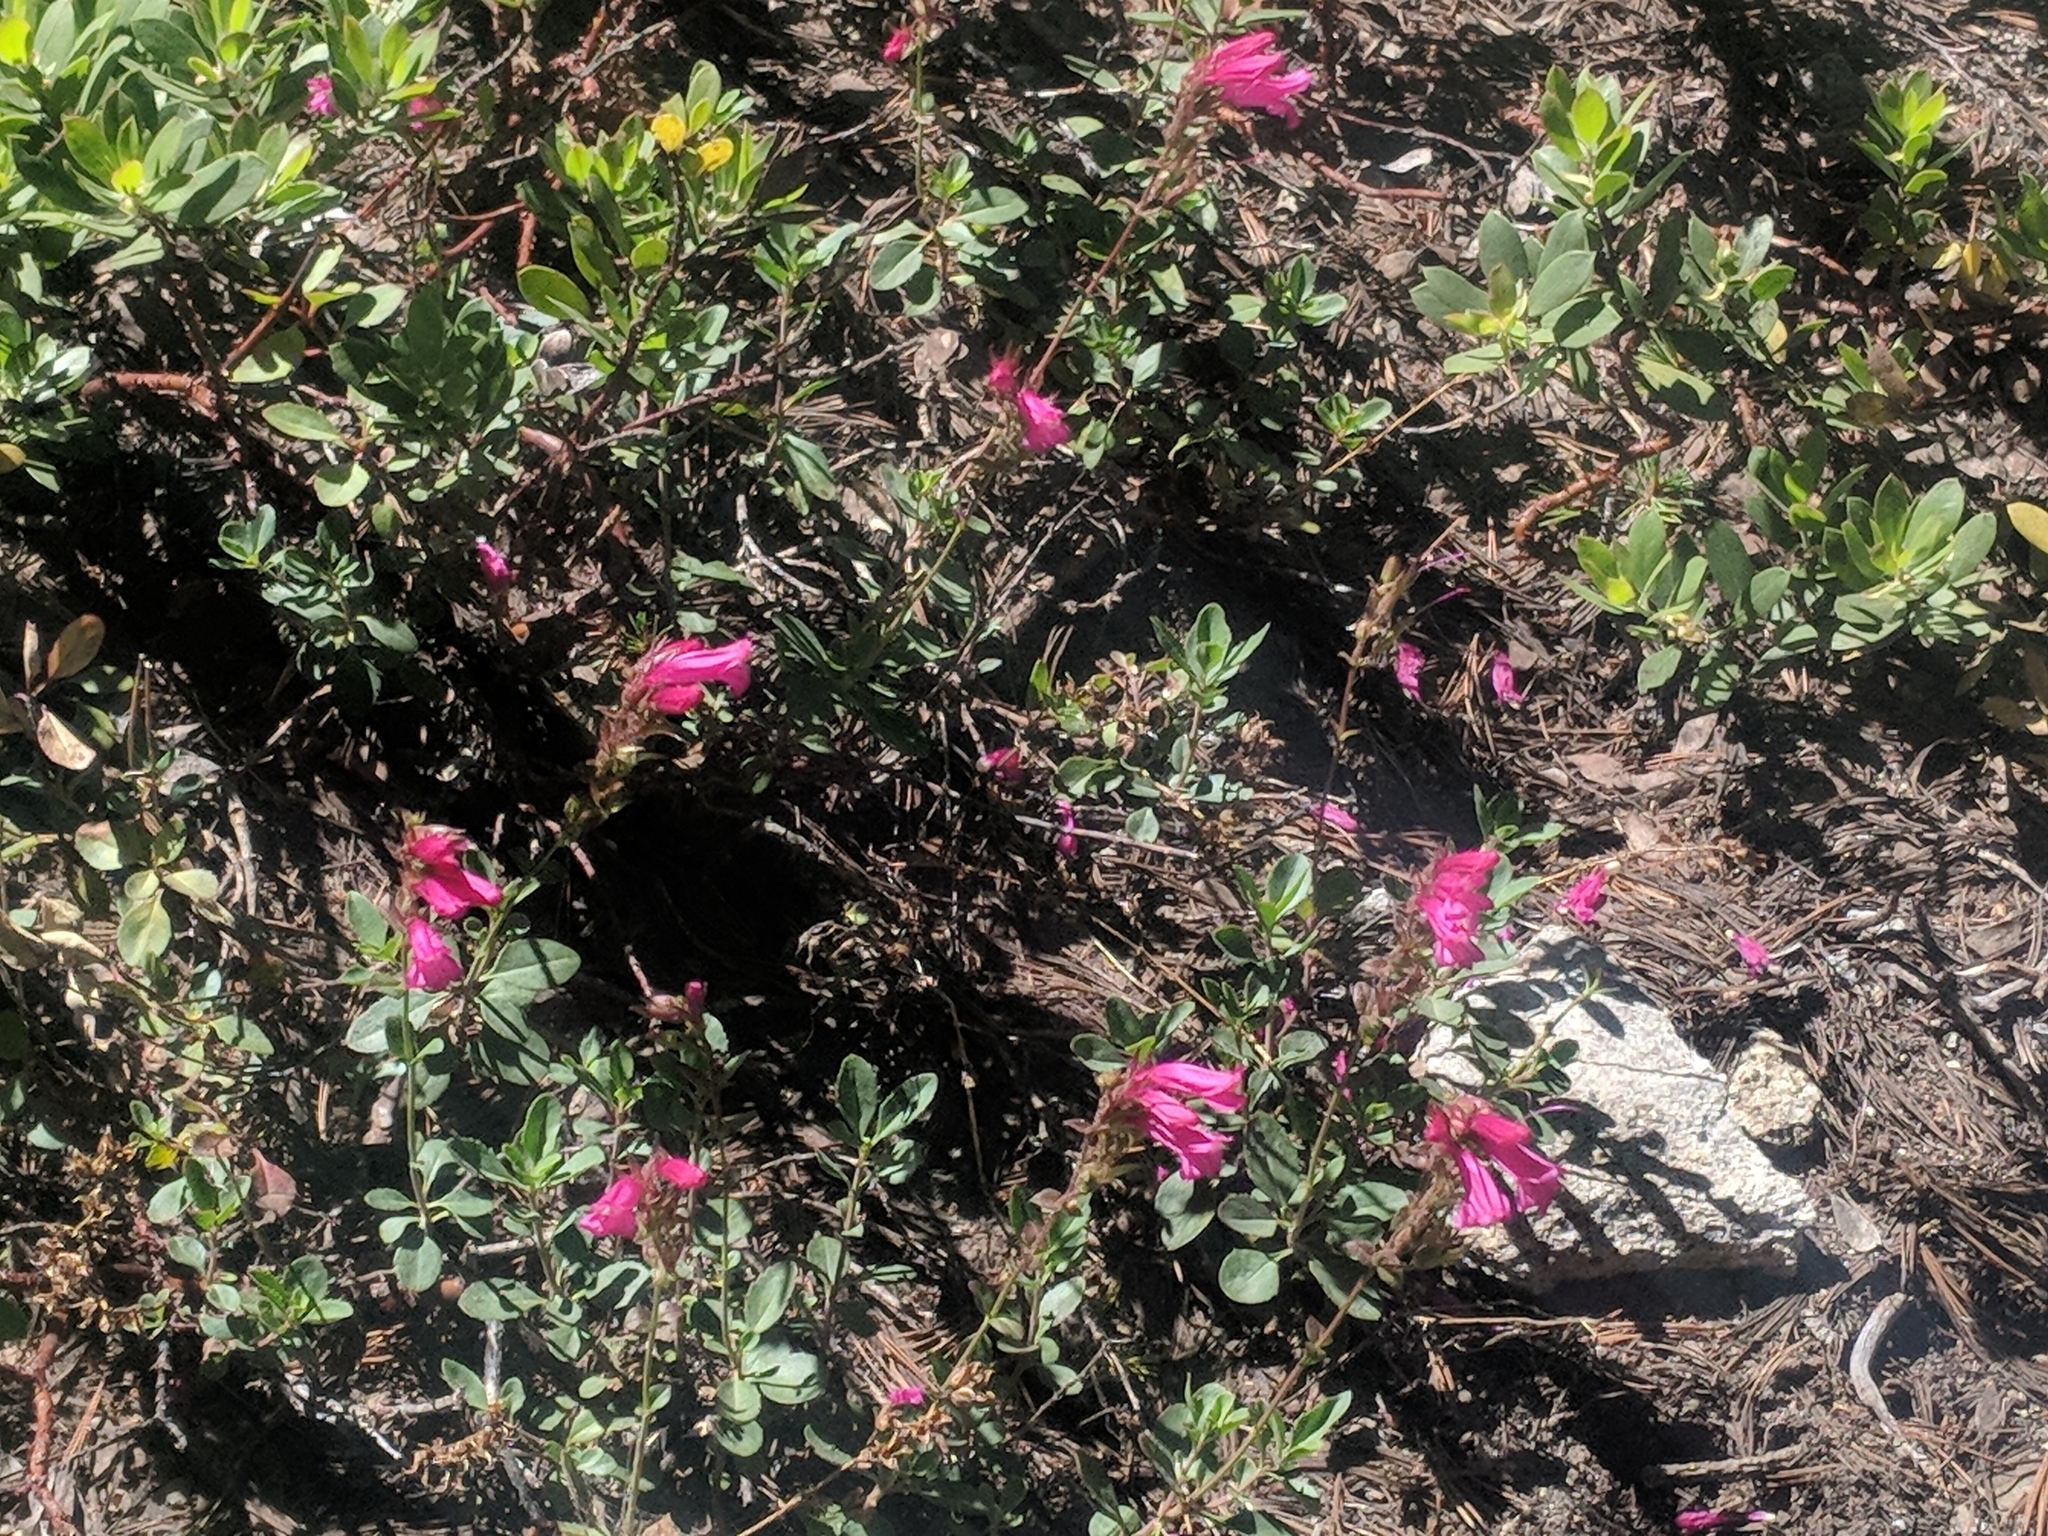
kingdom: Plantae
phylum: Tracheophyta
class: Magnoliopsida
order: Lamiales
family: Plantaginaceae
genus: Penstemon
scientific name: Penstemon newberryi
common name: Mountain-pride
